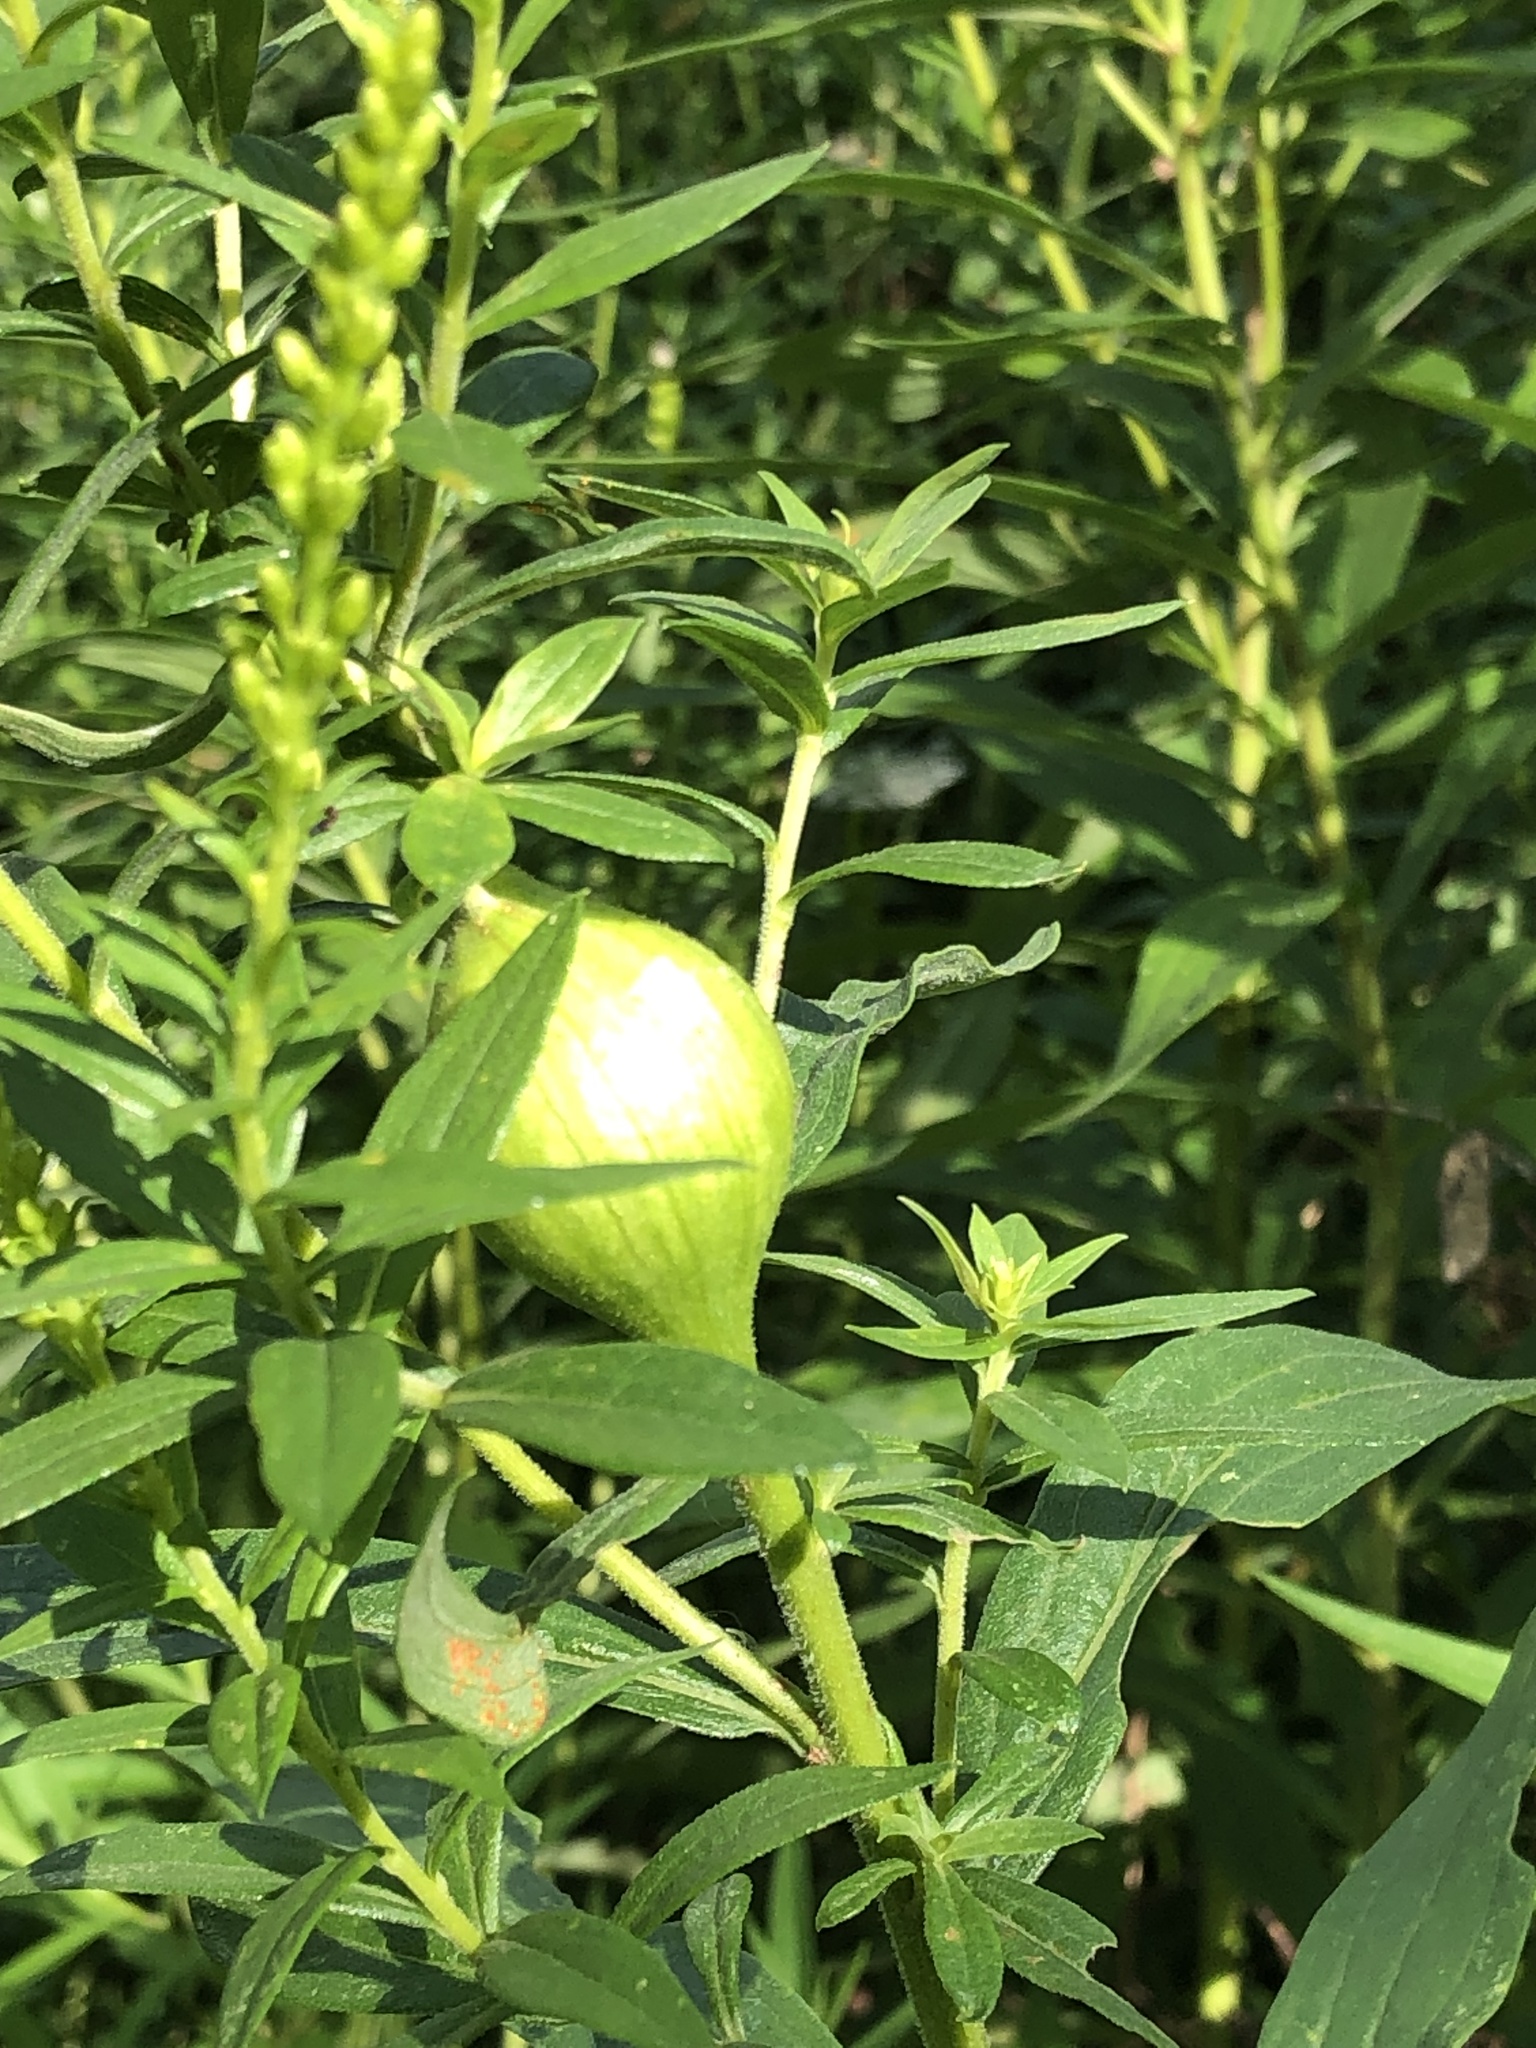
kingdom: Animalia
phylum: Arthropoda
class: Insecta
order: Diptera
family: Tephritidae
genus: Eurosta
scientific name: Eurosta solidaginis
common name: Goldenrod gall fly
